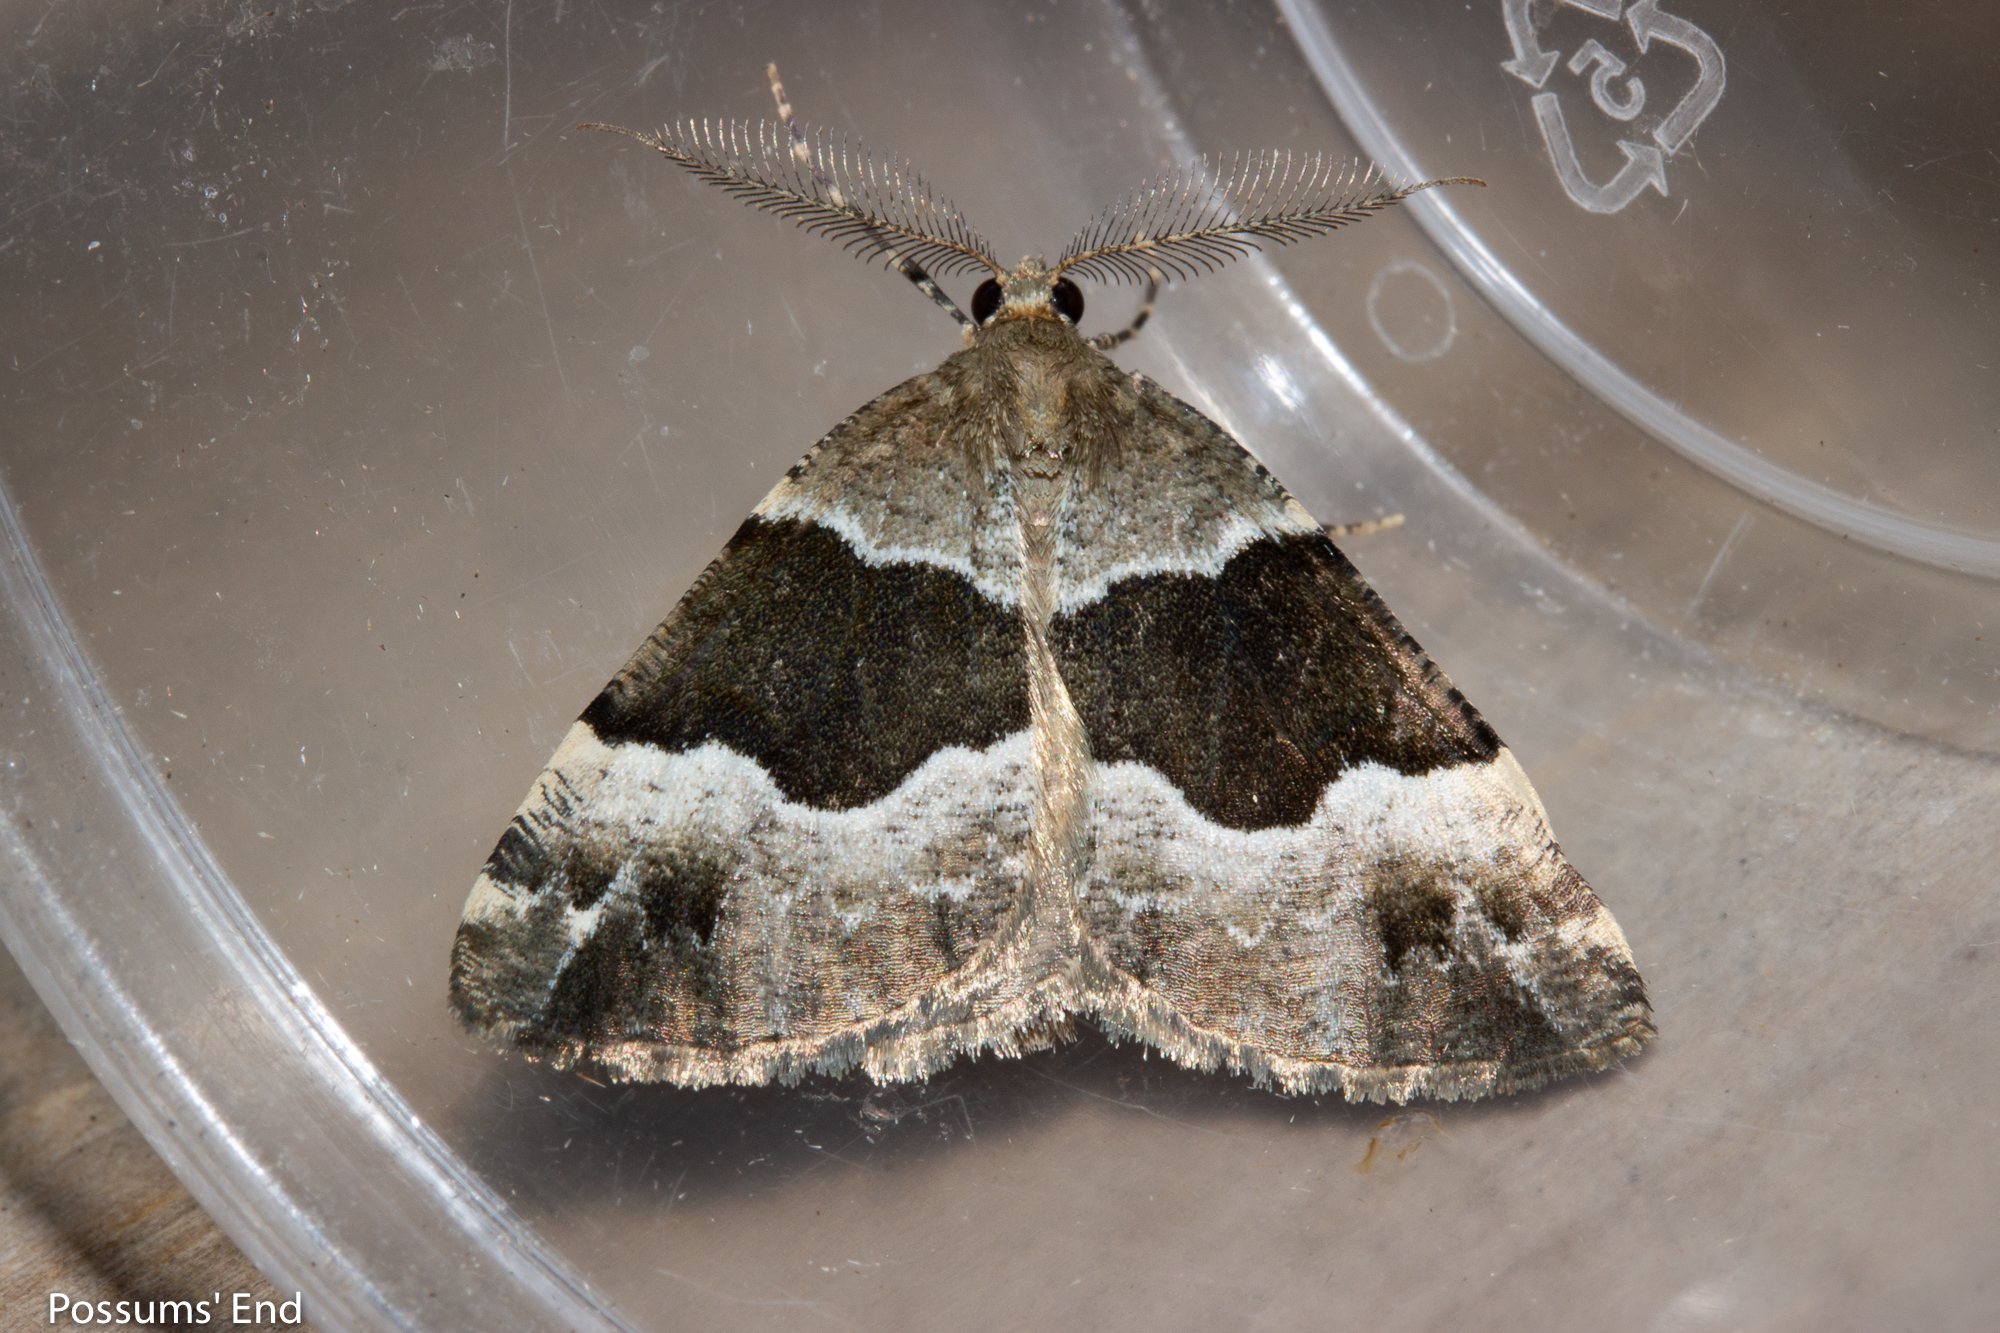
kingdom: Animalia
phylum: Arthropoda
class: Insecta
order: Lepidoptera
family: Geometridae
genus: Pseudocoremia
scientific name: Pseudocoremia
